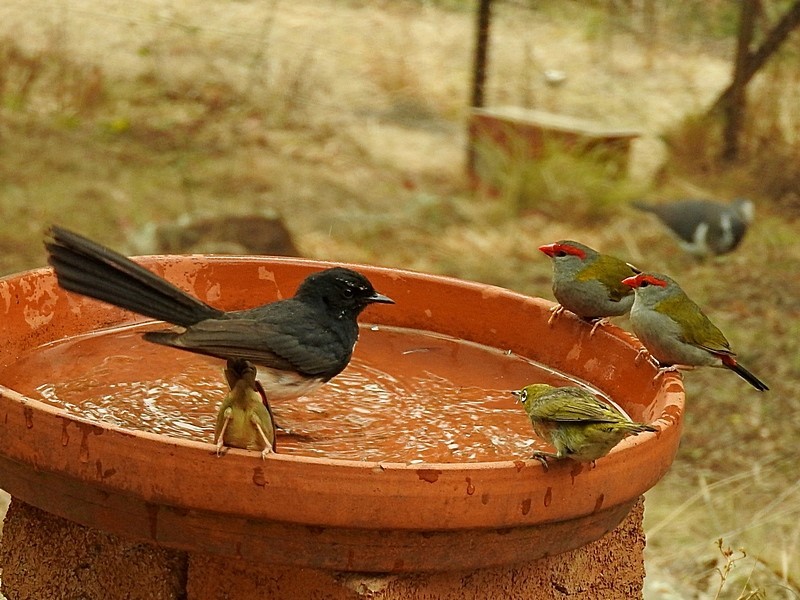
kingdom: Animalia
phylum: Chordata
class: Aves
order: Passeriformes
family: Zosteropidae
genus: Zosterops
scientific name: Zosterops lateralis
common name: Silvereye
